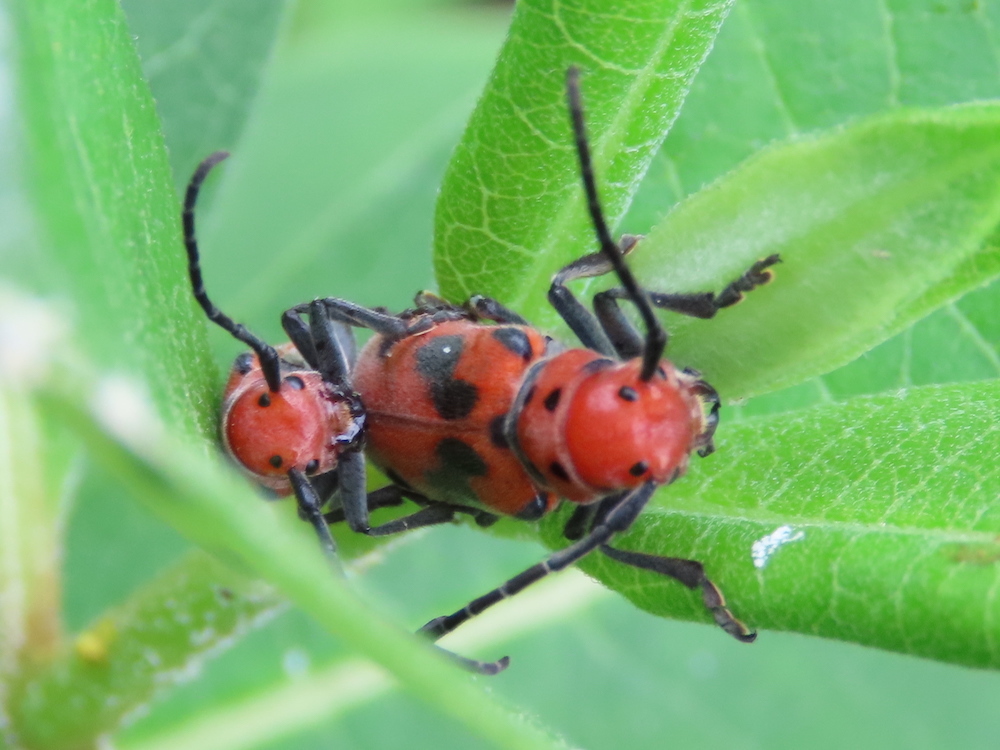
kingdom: Animalia
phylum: Arthropoda
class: Insecta
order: Coleoptera
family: Cerambycidae
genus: Tetraopes
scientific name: Tetraopes tetrophthalmus
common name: Red milkweed beetle
